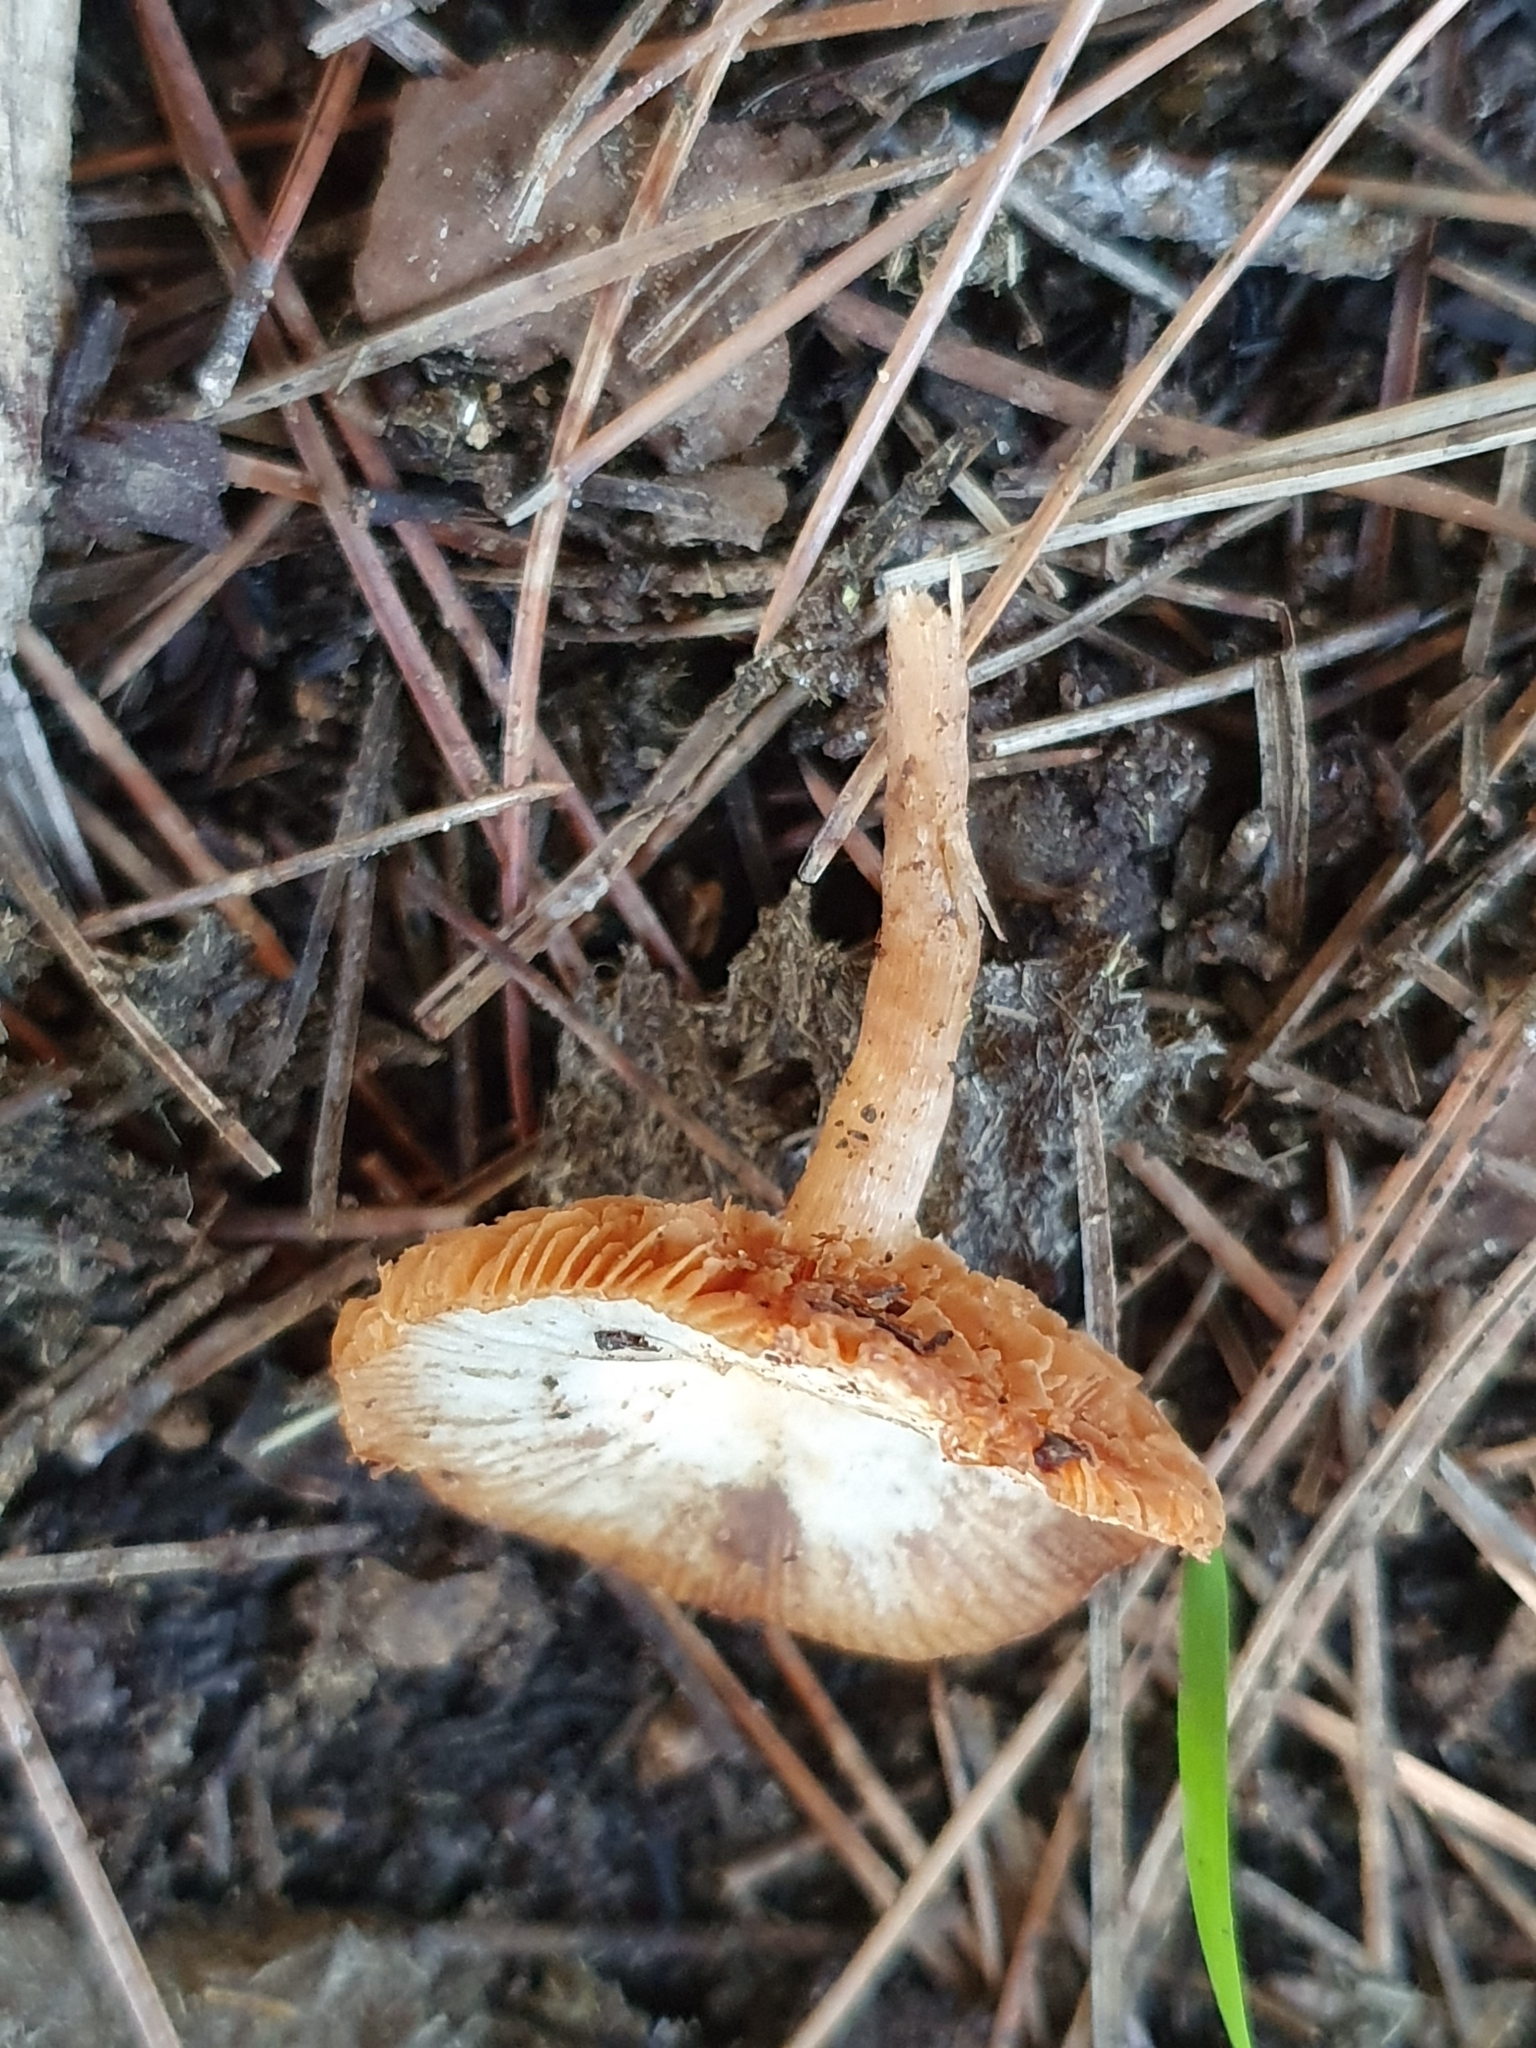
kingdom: Fungi
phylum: Basidiomycota
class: Agaricomycetes
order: Agaricales
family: Tubariaceae
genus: Tubaria
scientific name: Tubaria romagnesiana
